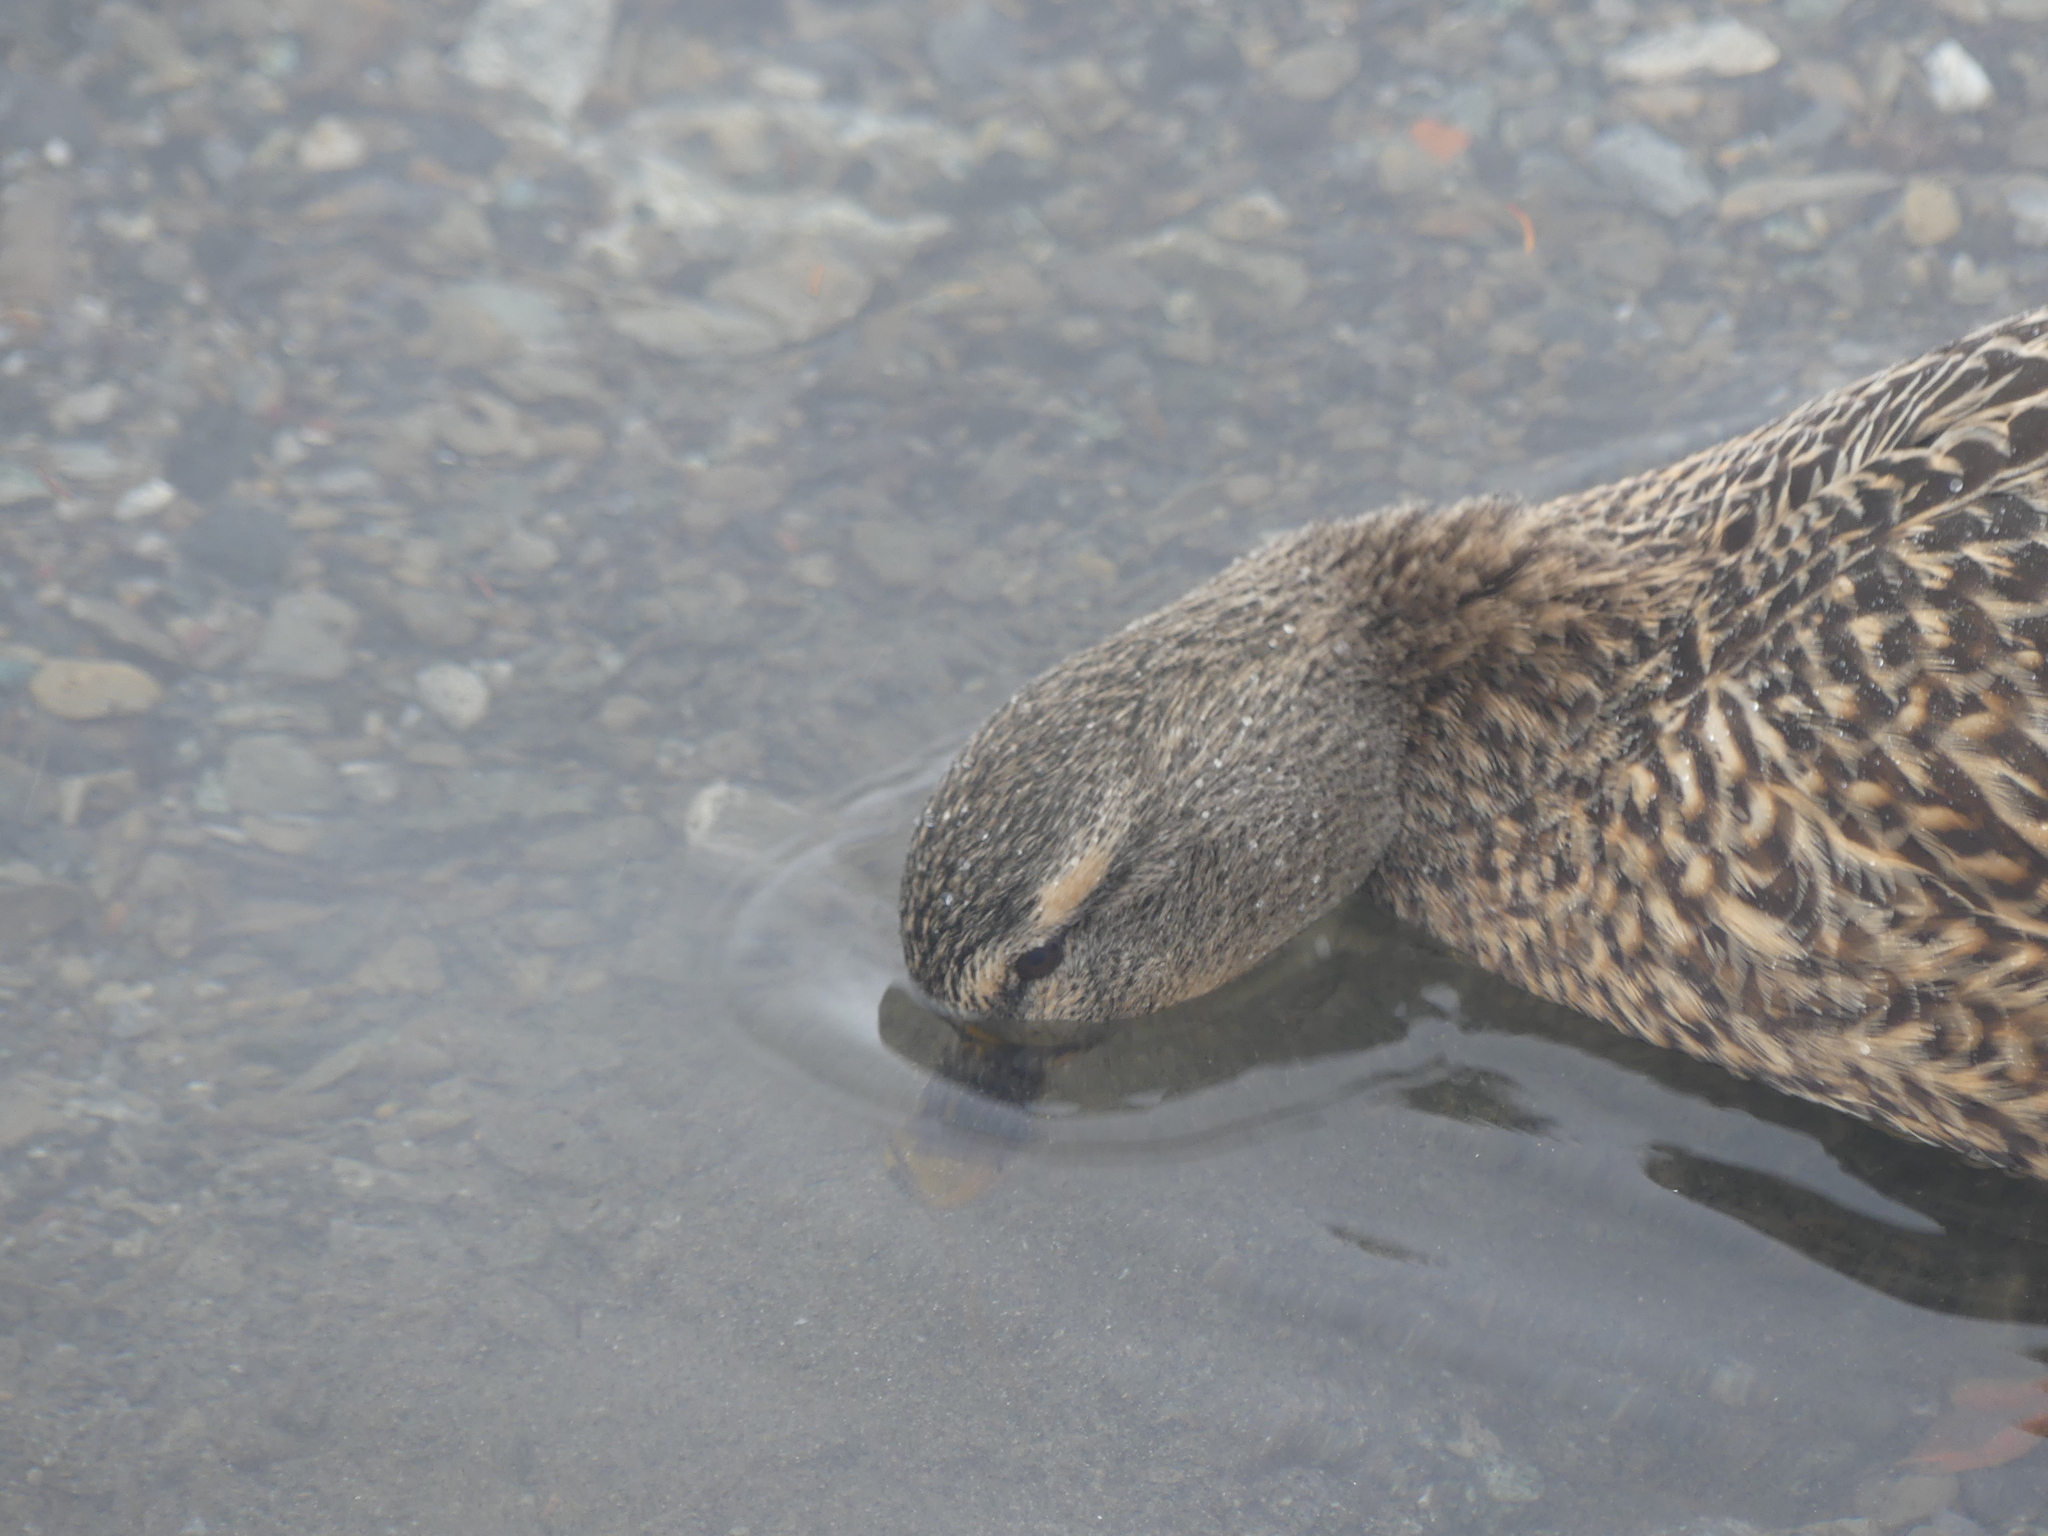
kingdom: Animalia
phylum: Chordata
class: Aves
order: Anseriformes
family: Anatidae
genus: Anas
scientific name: Anas platyrhynchos
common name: Mallard
